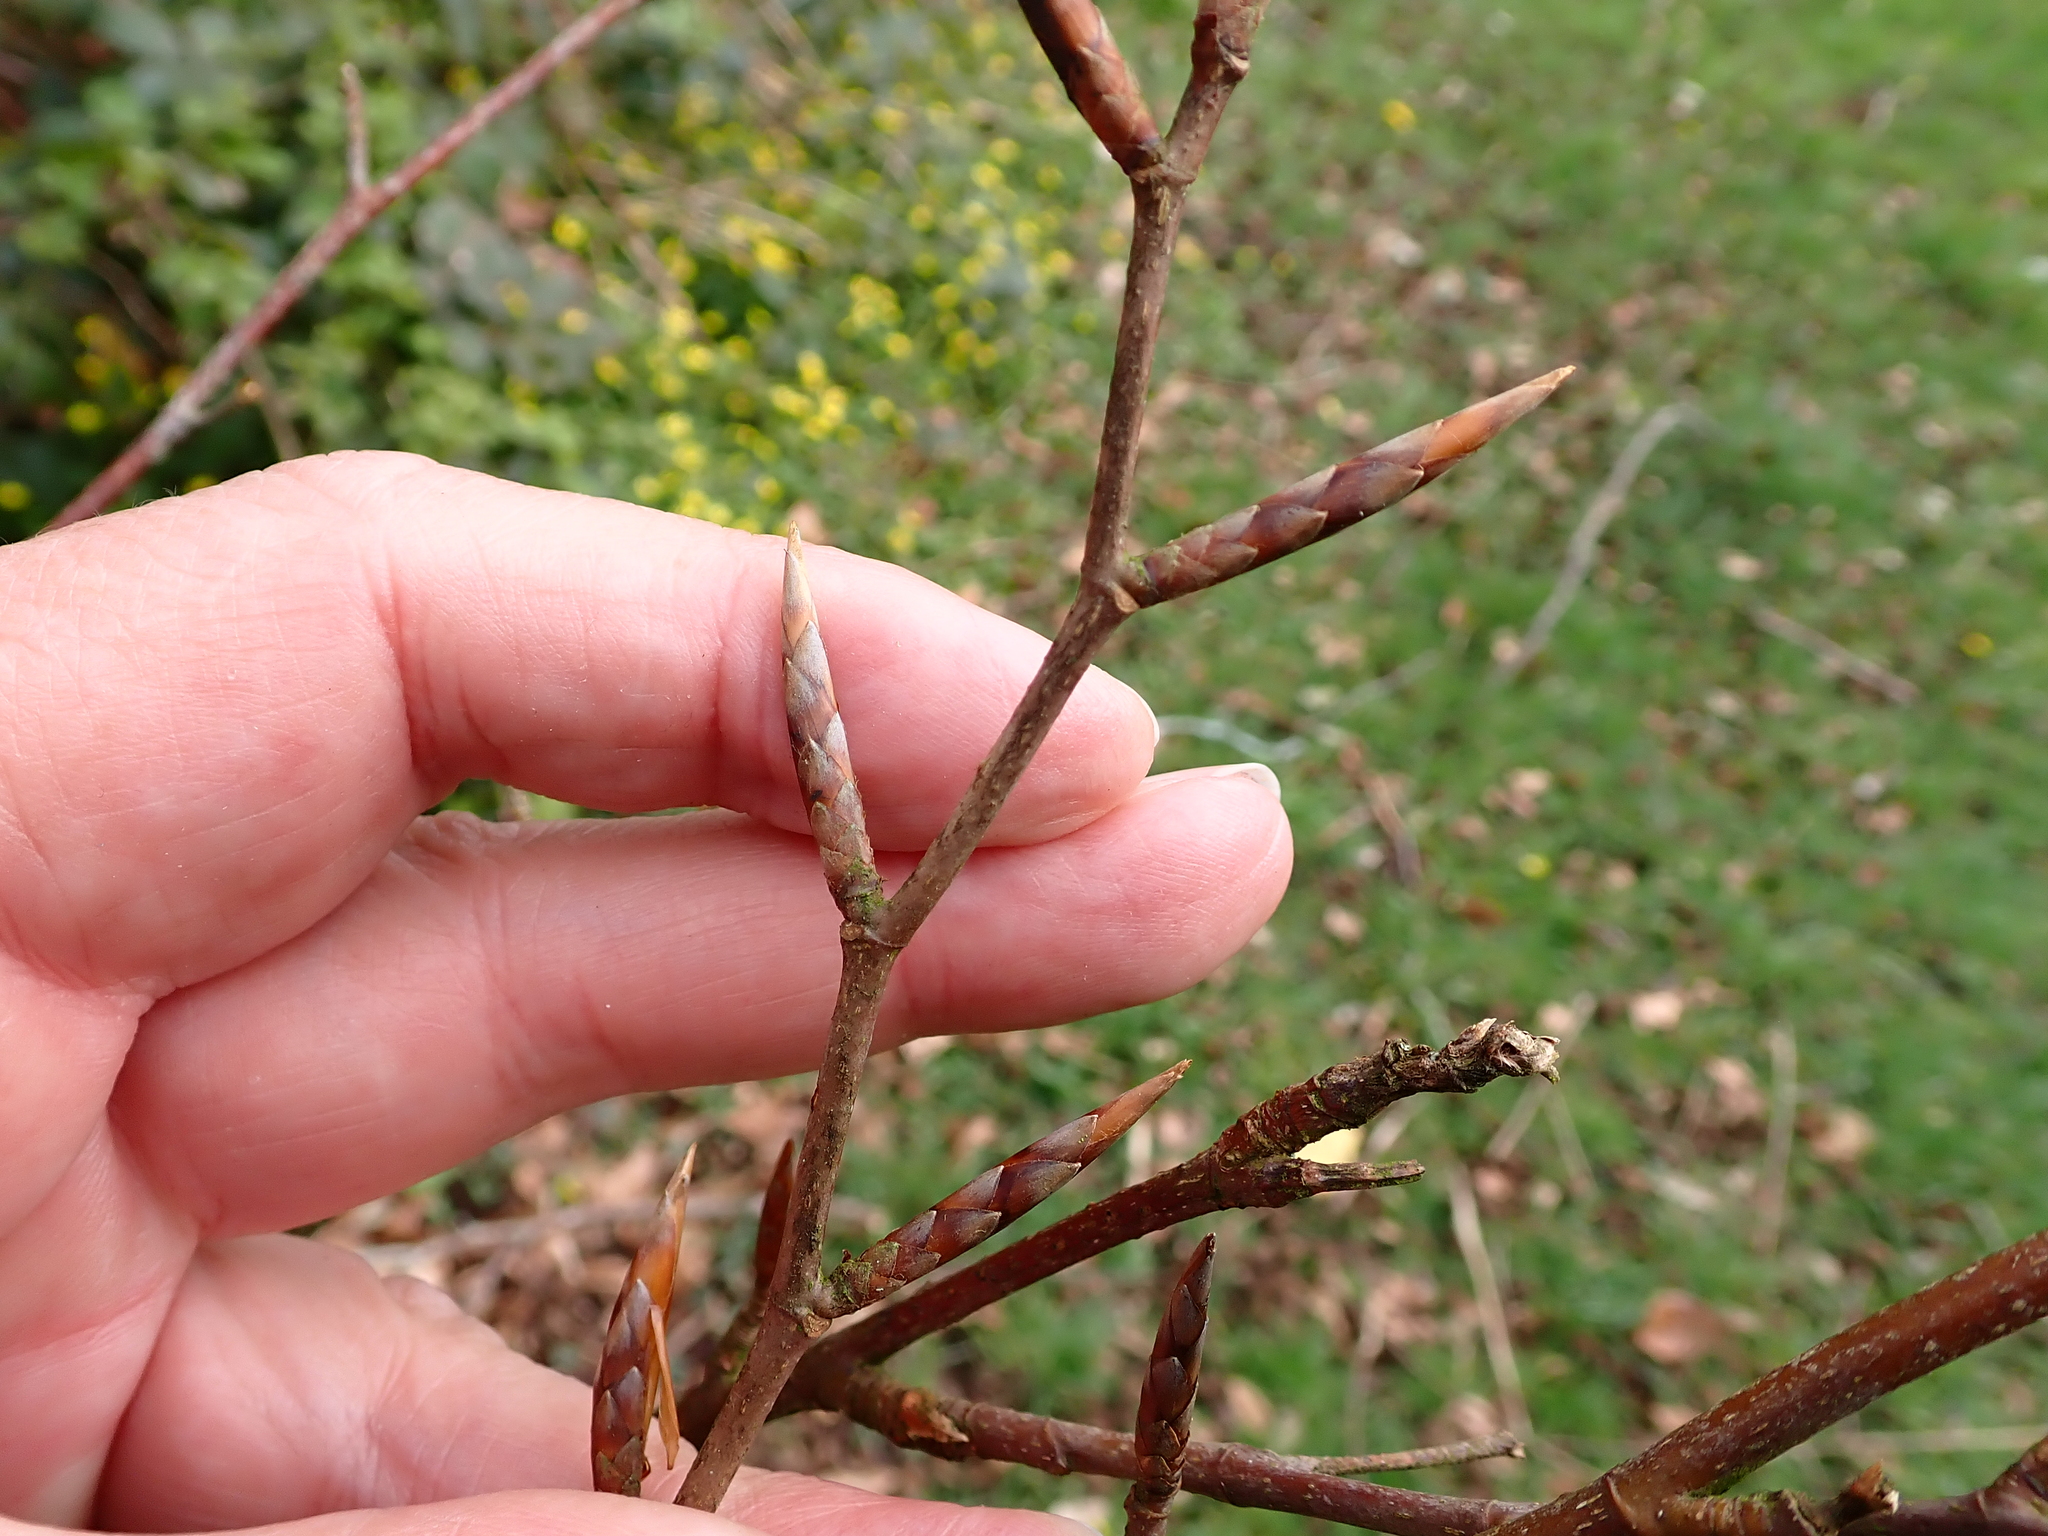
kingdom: Plantae
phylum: Tracheophyta
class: Magnoliopsida
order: Fagales
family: Fagaceae
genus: Fagus
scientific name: Fagus sylvatica
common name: Beech
